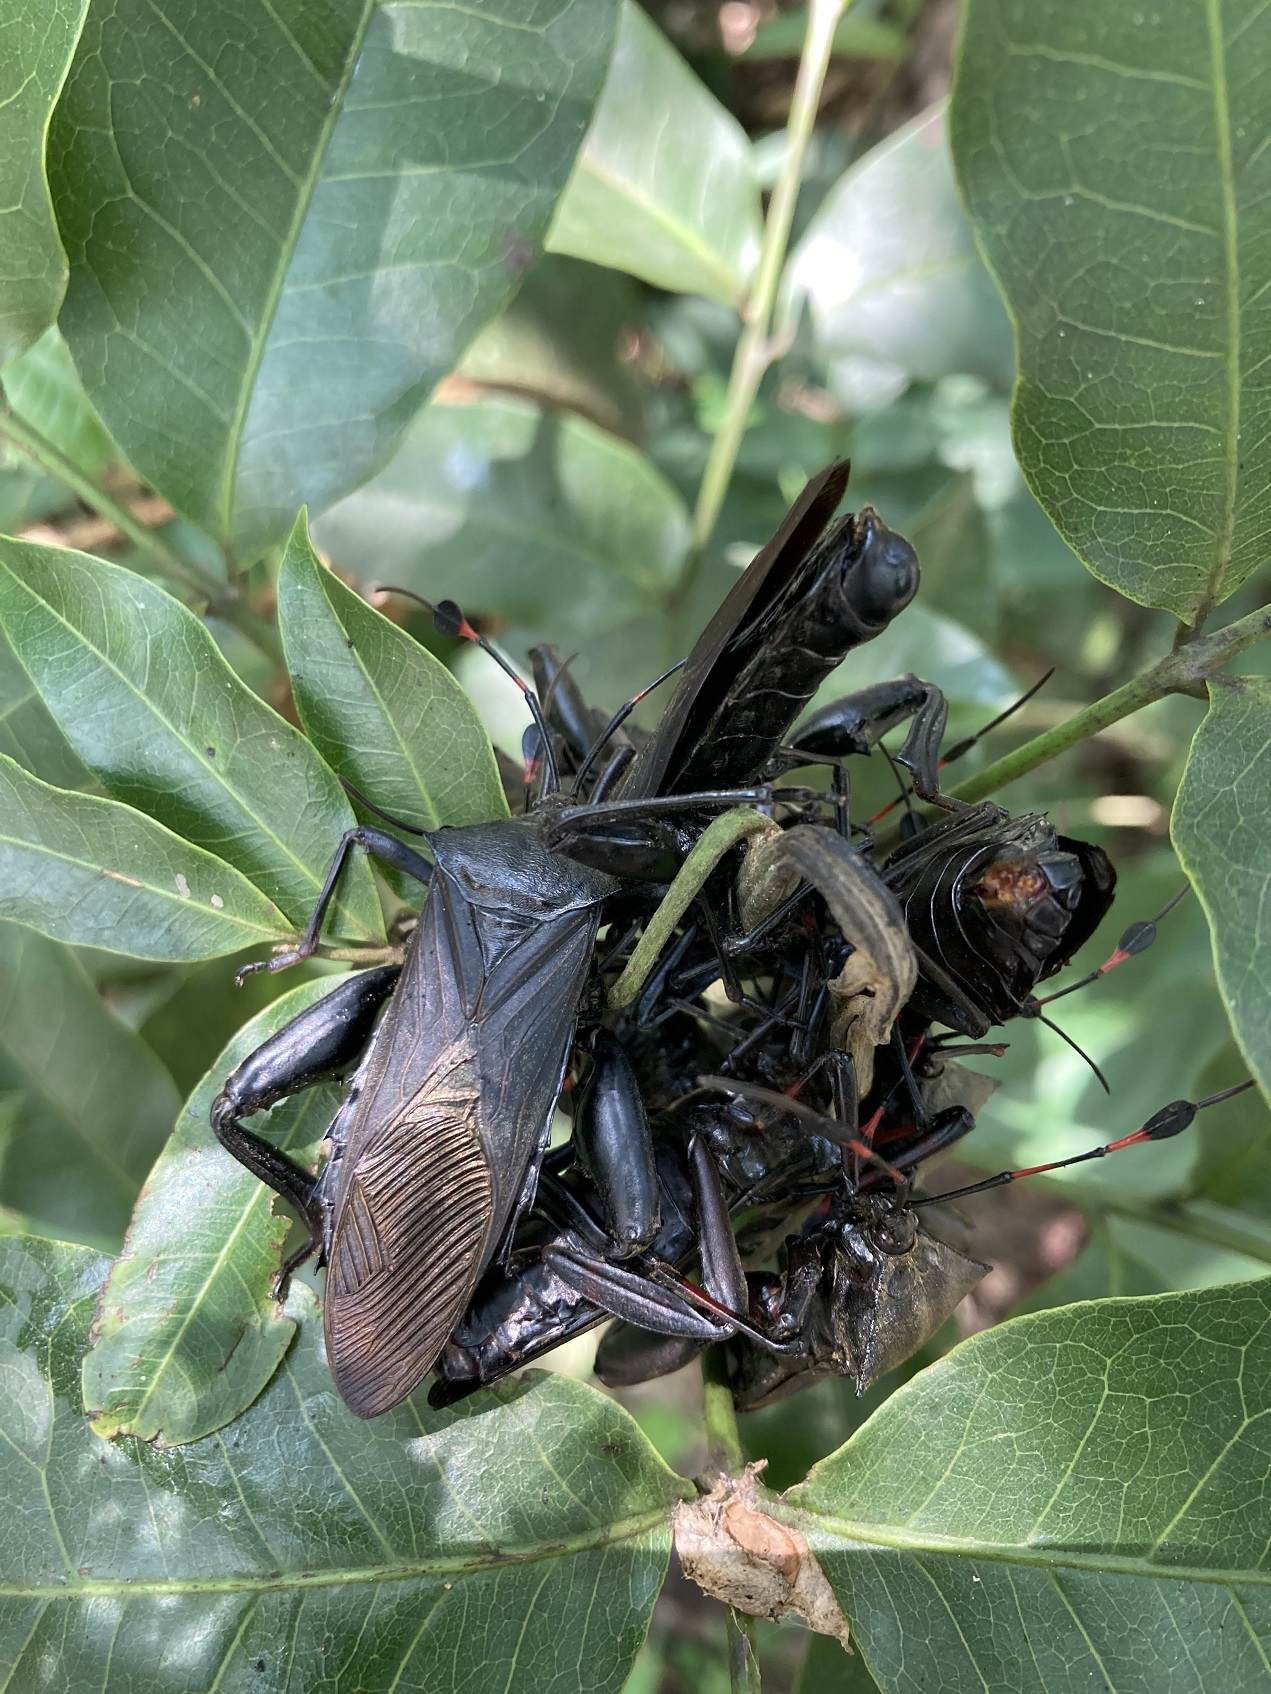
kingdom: Animalia
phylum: Arthropoda
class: Insecta
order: Hemiptera
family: Coreidae
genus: Thasus
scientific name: Thasus acutangulus
